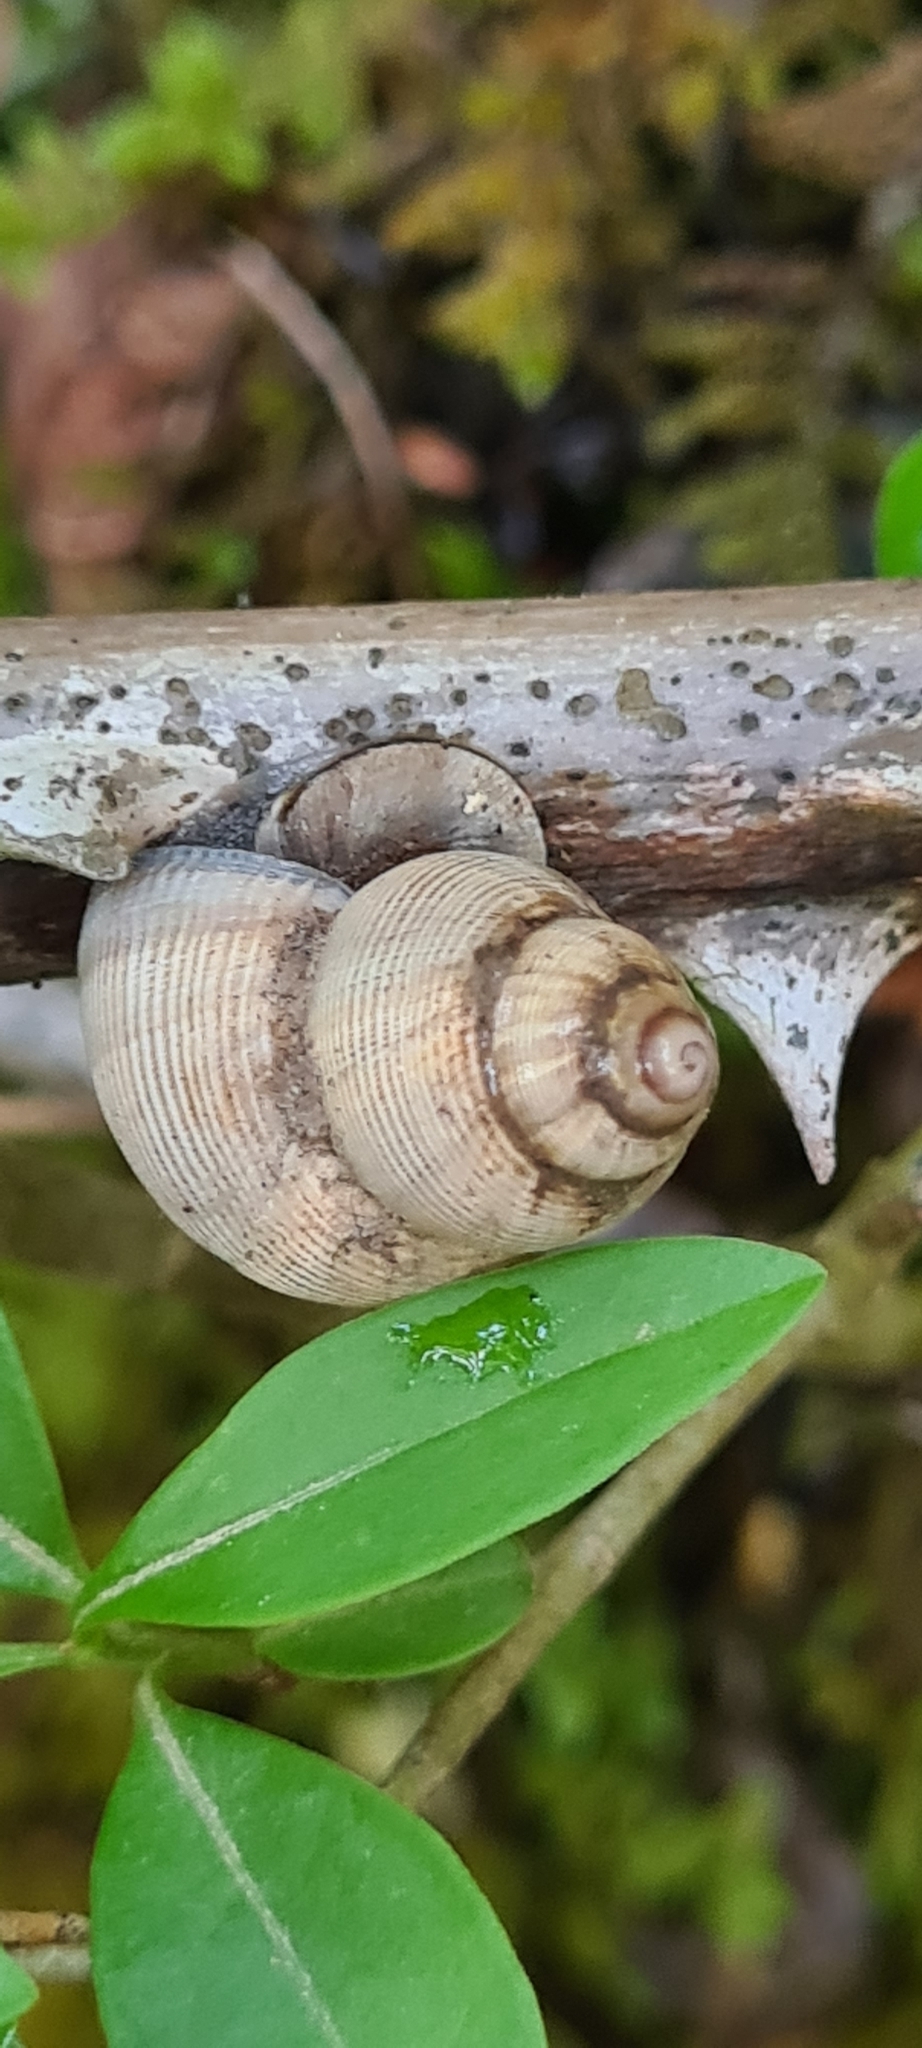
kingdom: Animalia
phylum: Mollusca
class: Gastropoda
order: Littorinimorpha
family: Pomatiidae
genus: Pomatias
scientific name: Pomatias elegans
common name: Red-mouthed snail
